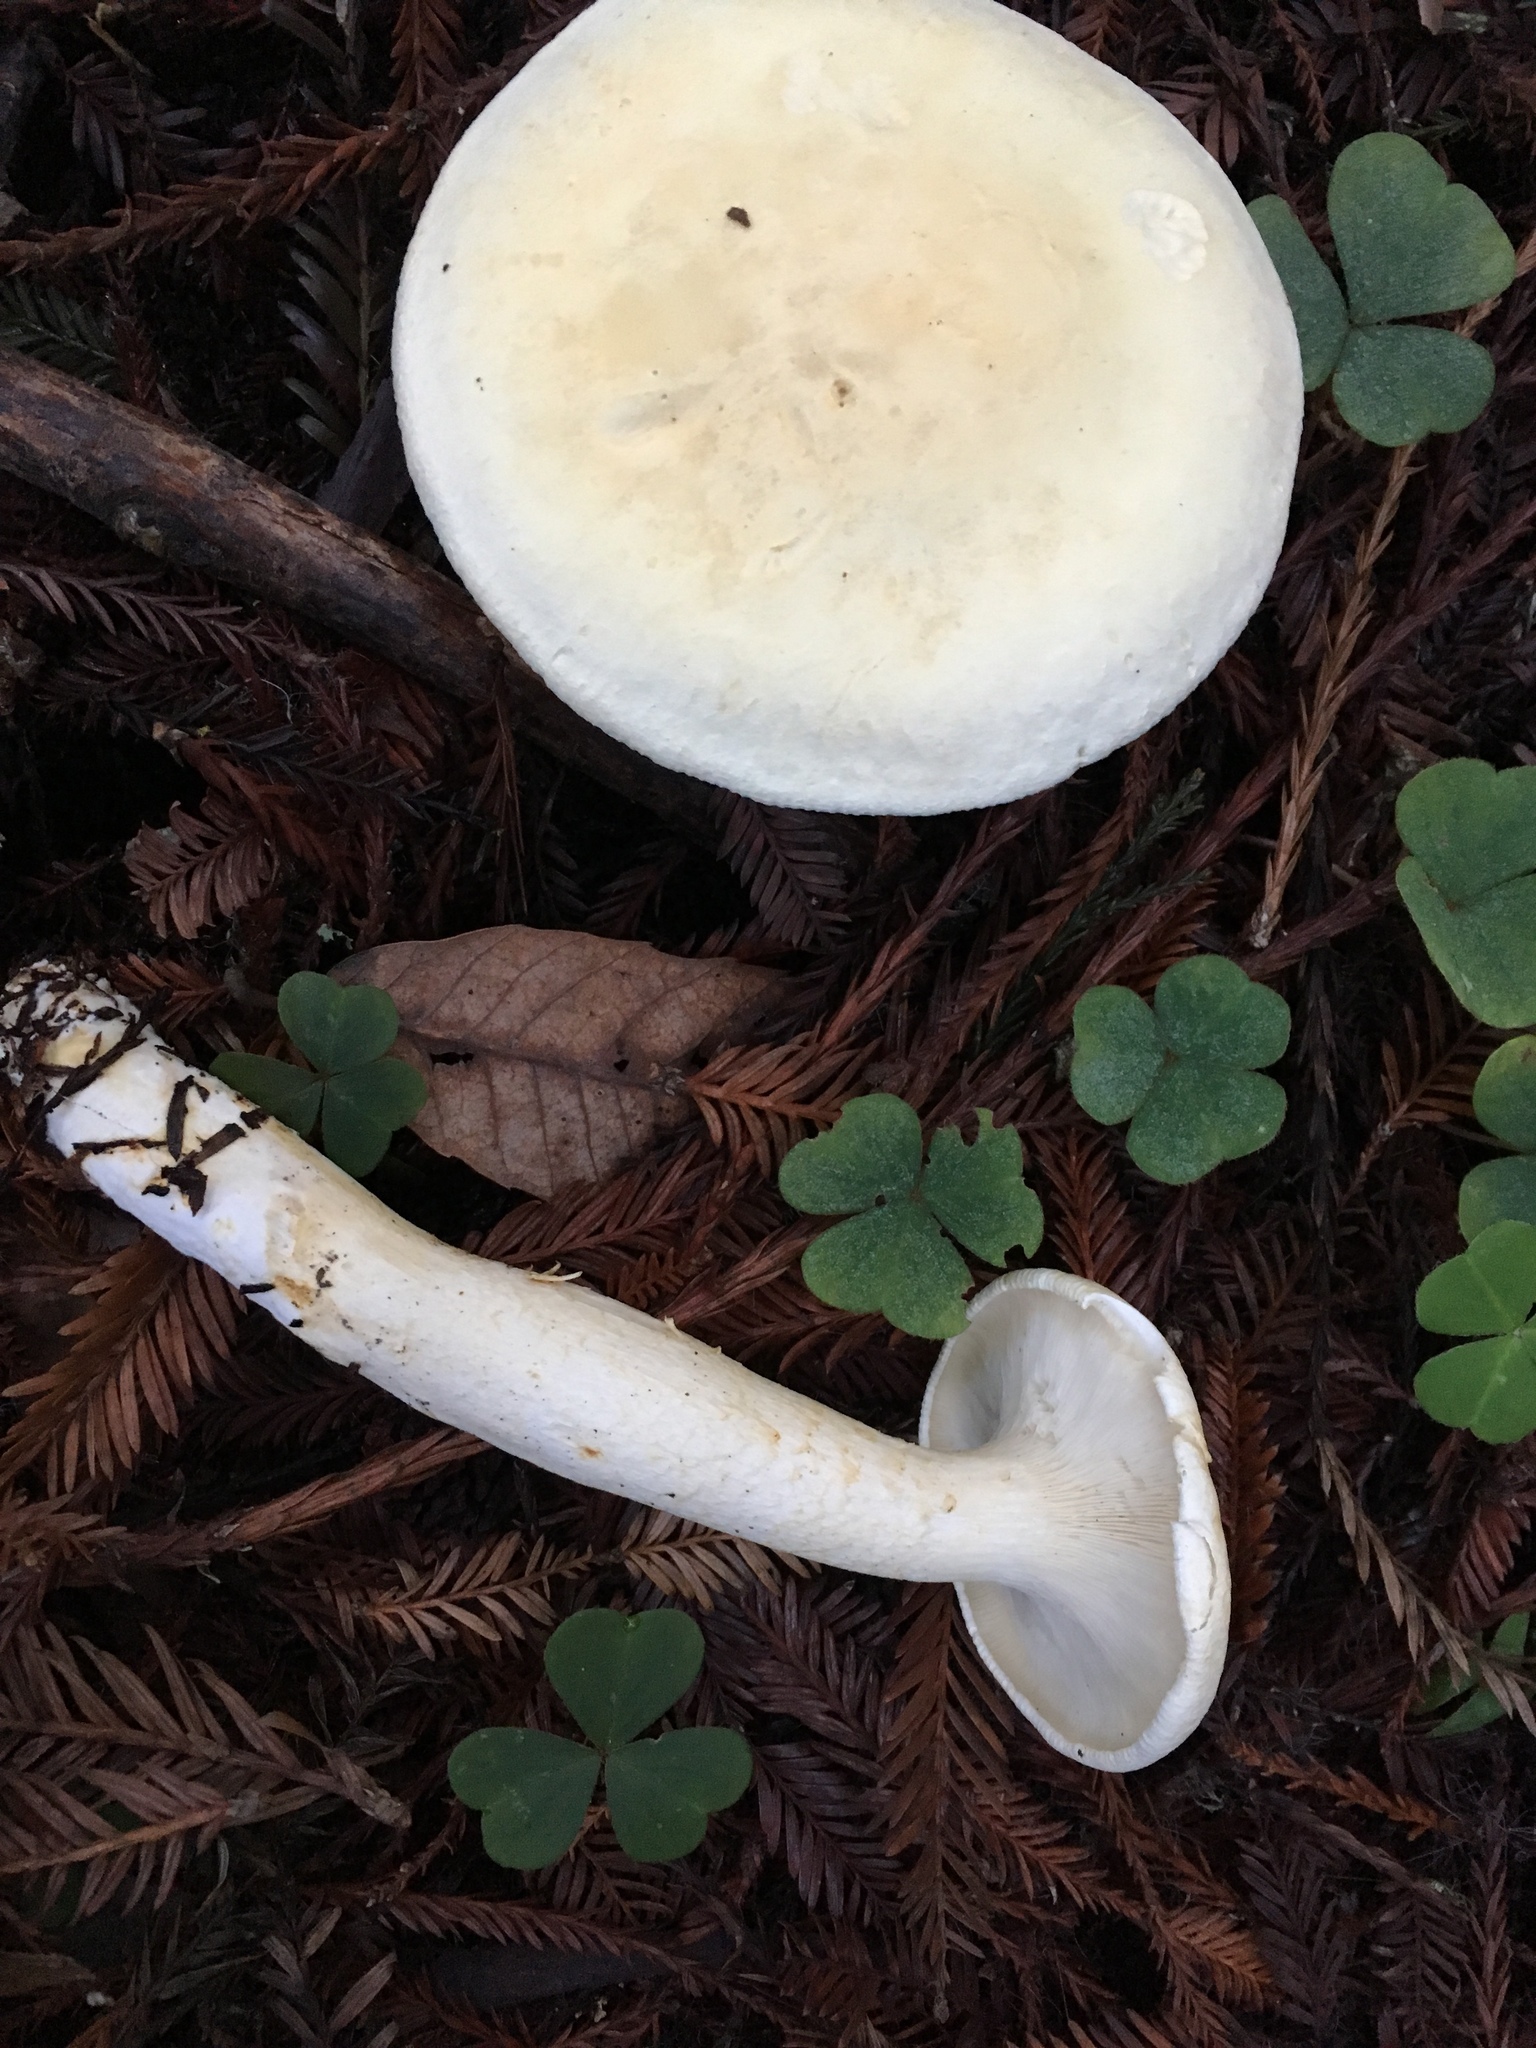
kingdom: Fungi
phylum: Basidiomycota
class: Agaricomycetes
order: Agaricales
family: Tricholomataceae
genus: Leucopaxillus
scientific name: Leucopaxillus albissimus
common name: Large white leucopax
